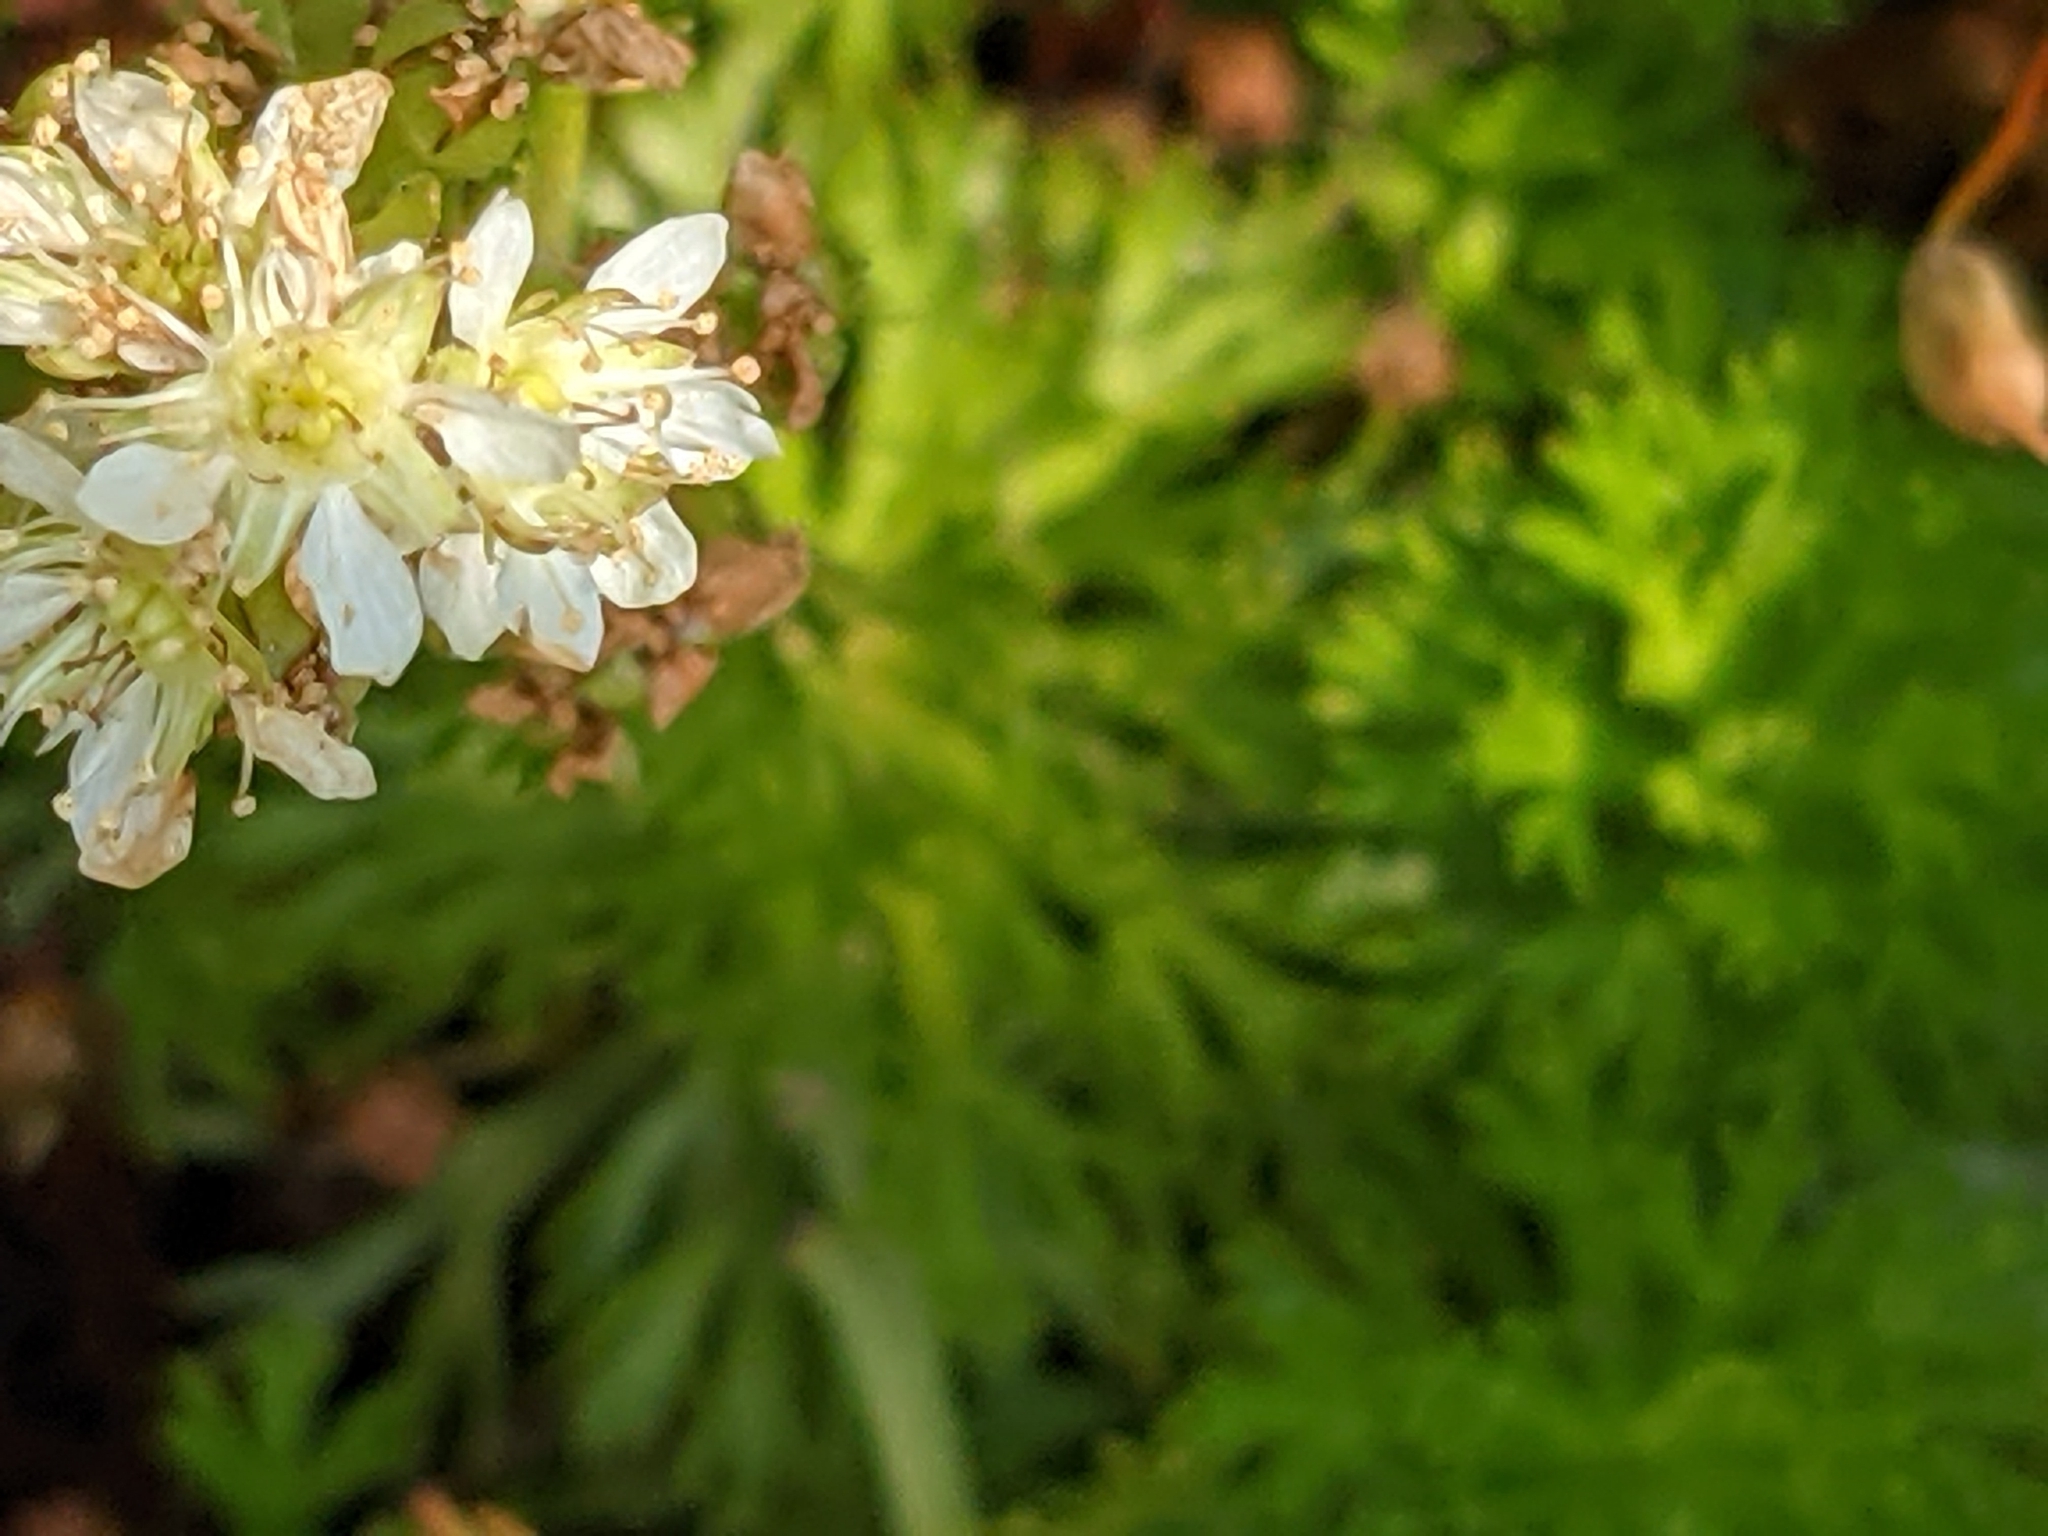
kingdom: Plantae
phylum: Tracheophyta
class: Magnoliopsida
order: Rosales
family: Rosaceae
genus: Luetkea
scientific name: Luetkea pectinata
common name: Partridgefoot
